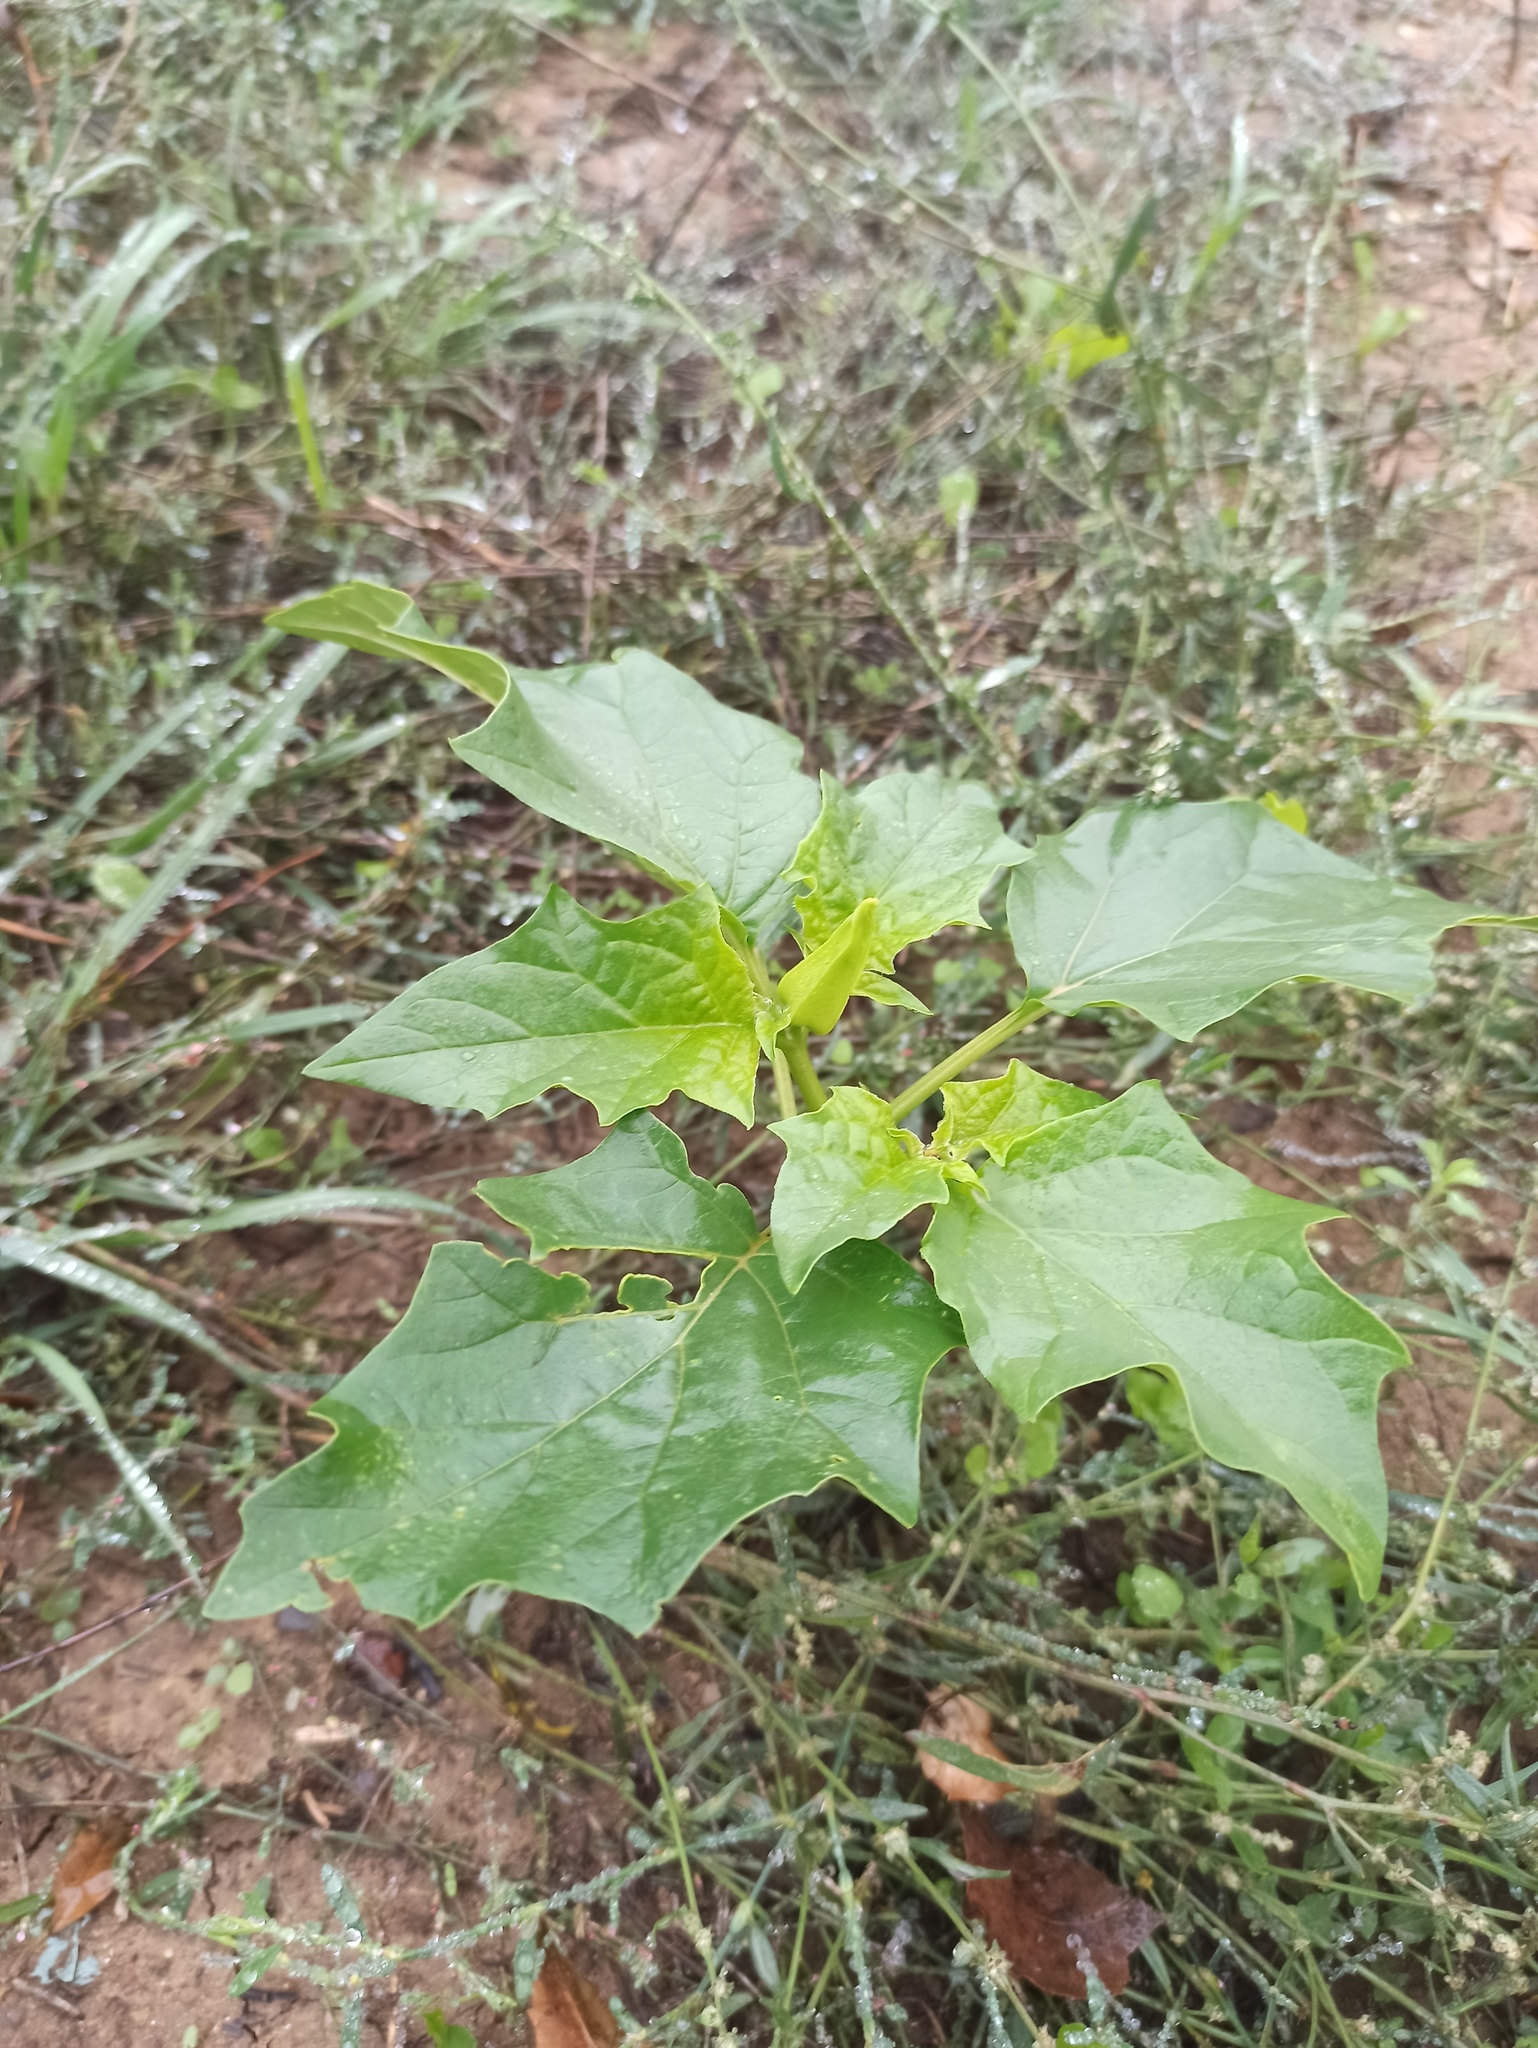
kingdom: Plantae
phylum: Tracheophyta
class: Magnoliopsida
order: Solanales
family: Solanaceae
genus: Datura
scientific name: Datura stramonium
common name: Thorn-apple
